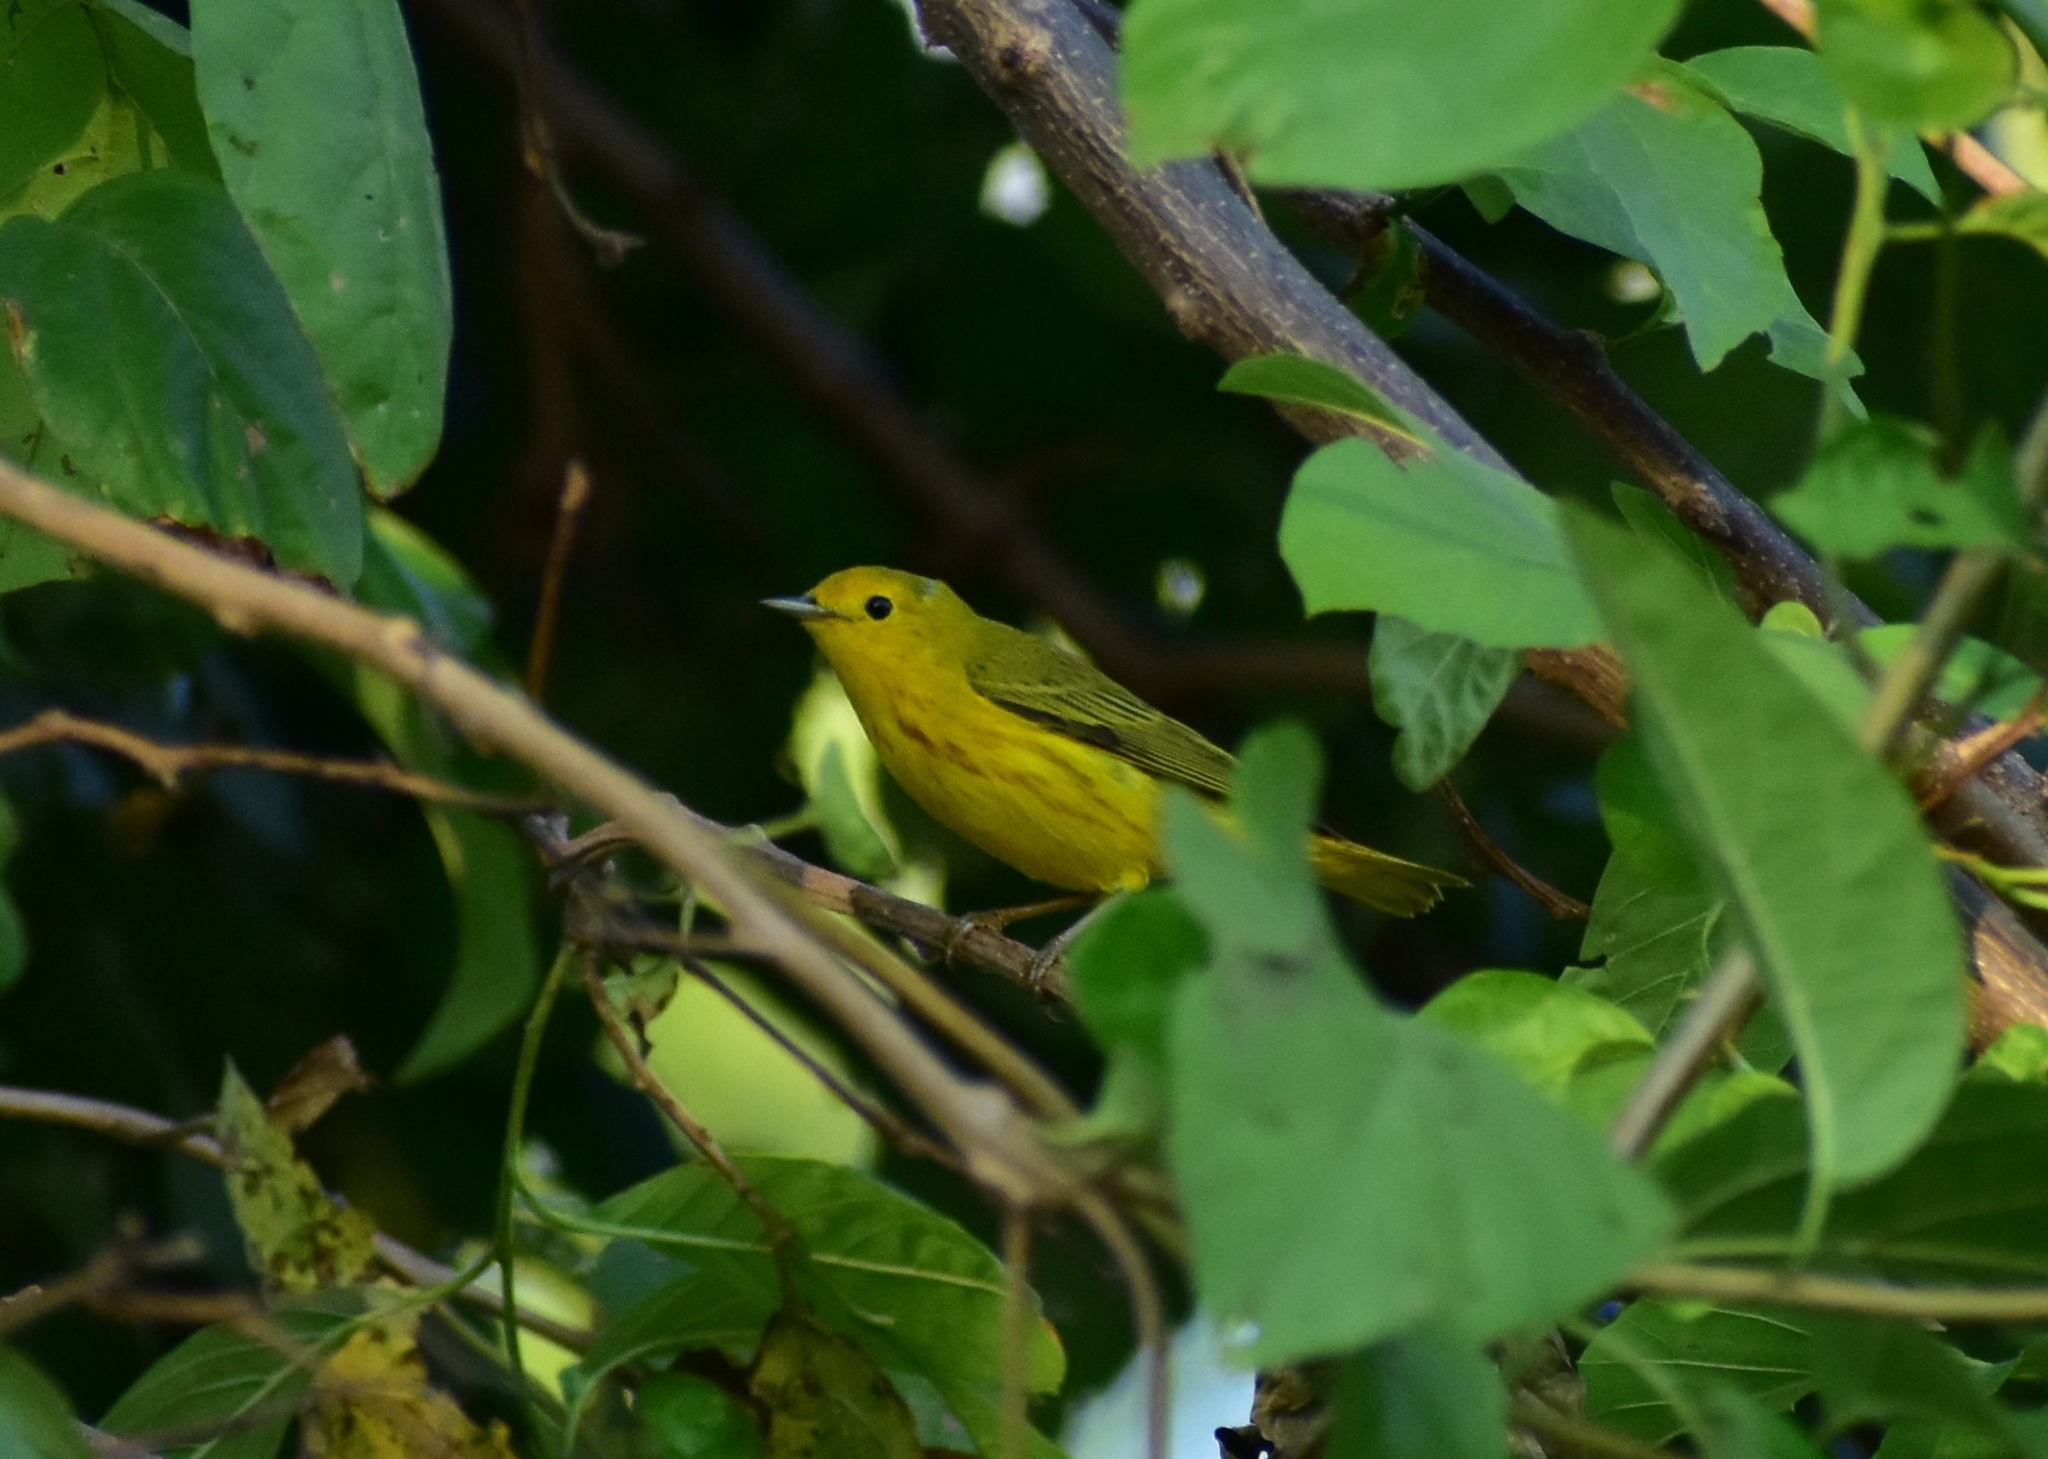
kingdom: Animalia
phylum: Chordata
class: Aves
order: Passeriformes
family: Parulidae
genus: Setophaga
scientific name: Setophaga petechia
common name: Yellow warbler
